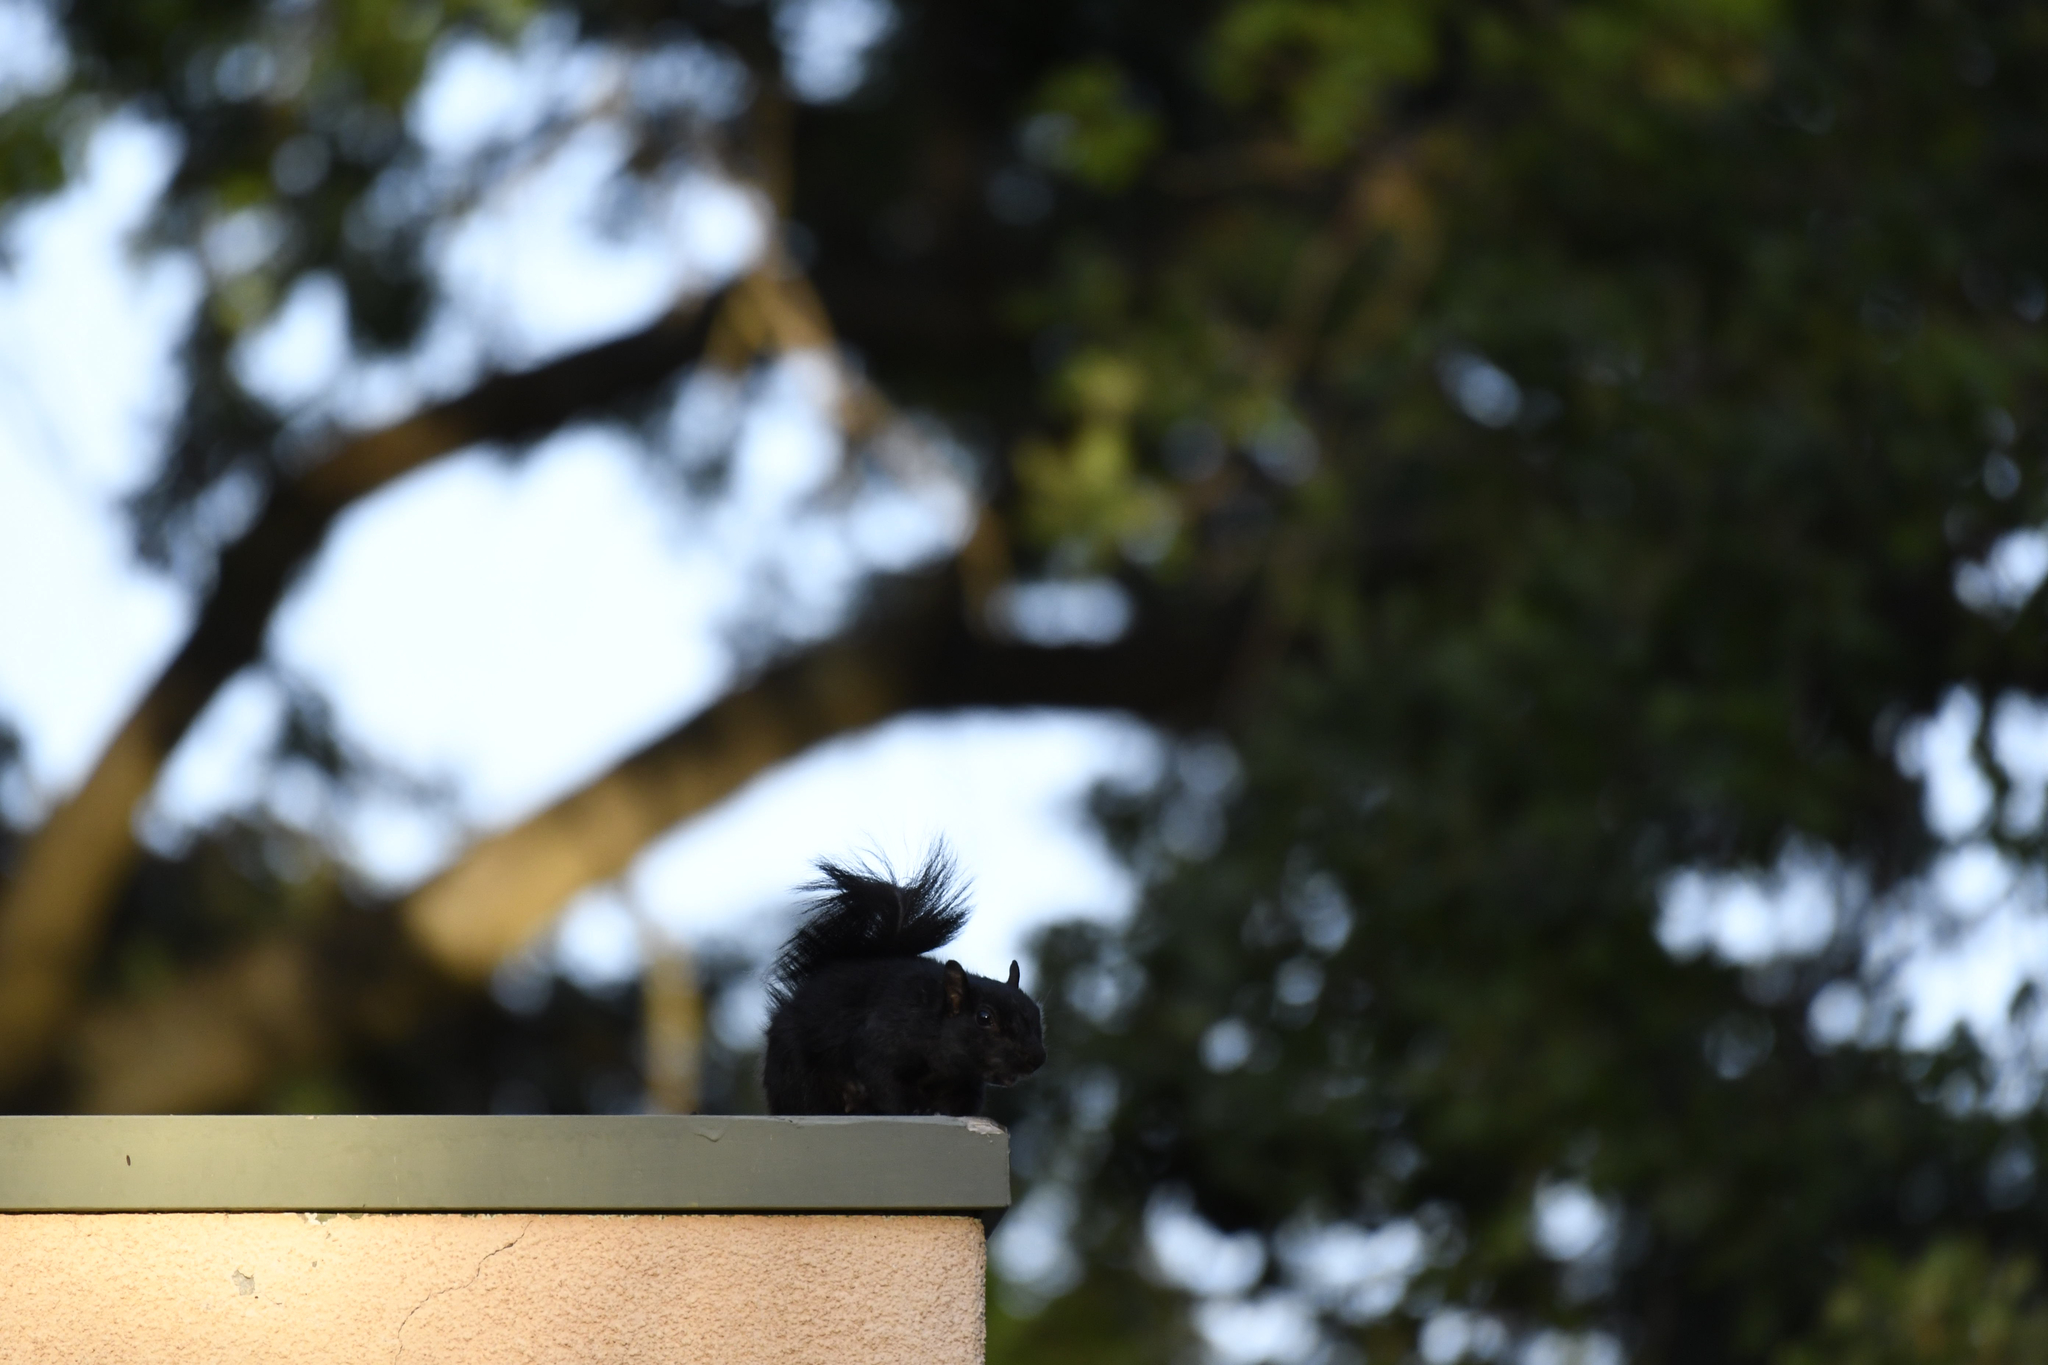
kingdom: Animalia
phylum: Chordata
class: Mammalia
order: Rodentia
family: Sciuridae
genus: Sciurus
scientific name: Sciurus carolinensis
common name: Eastern gray squirrel
